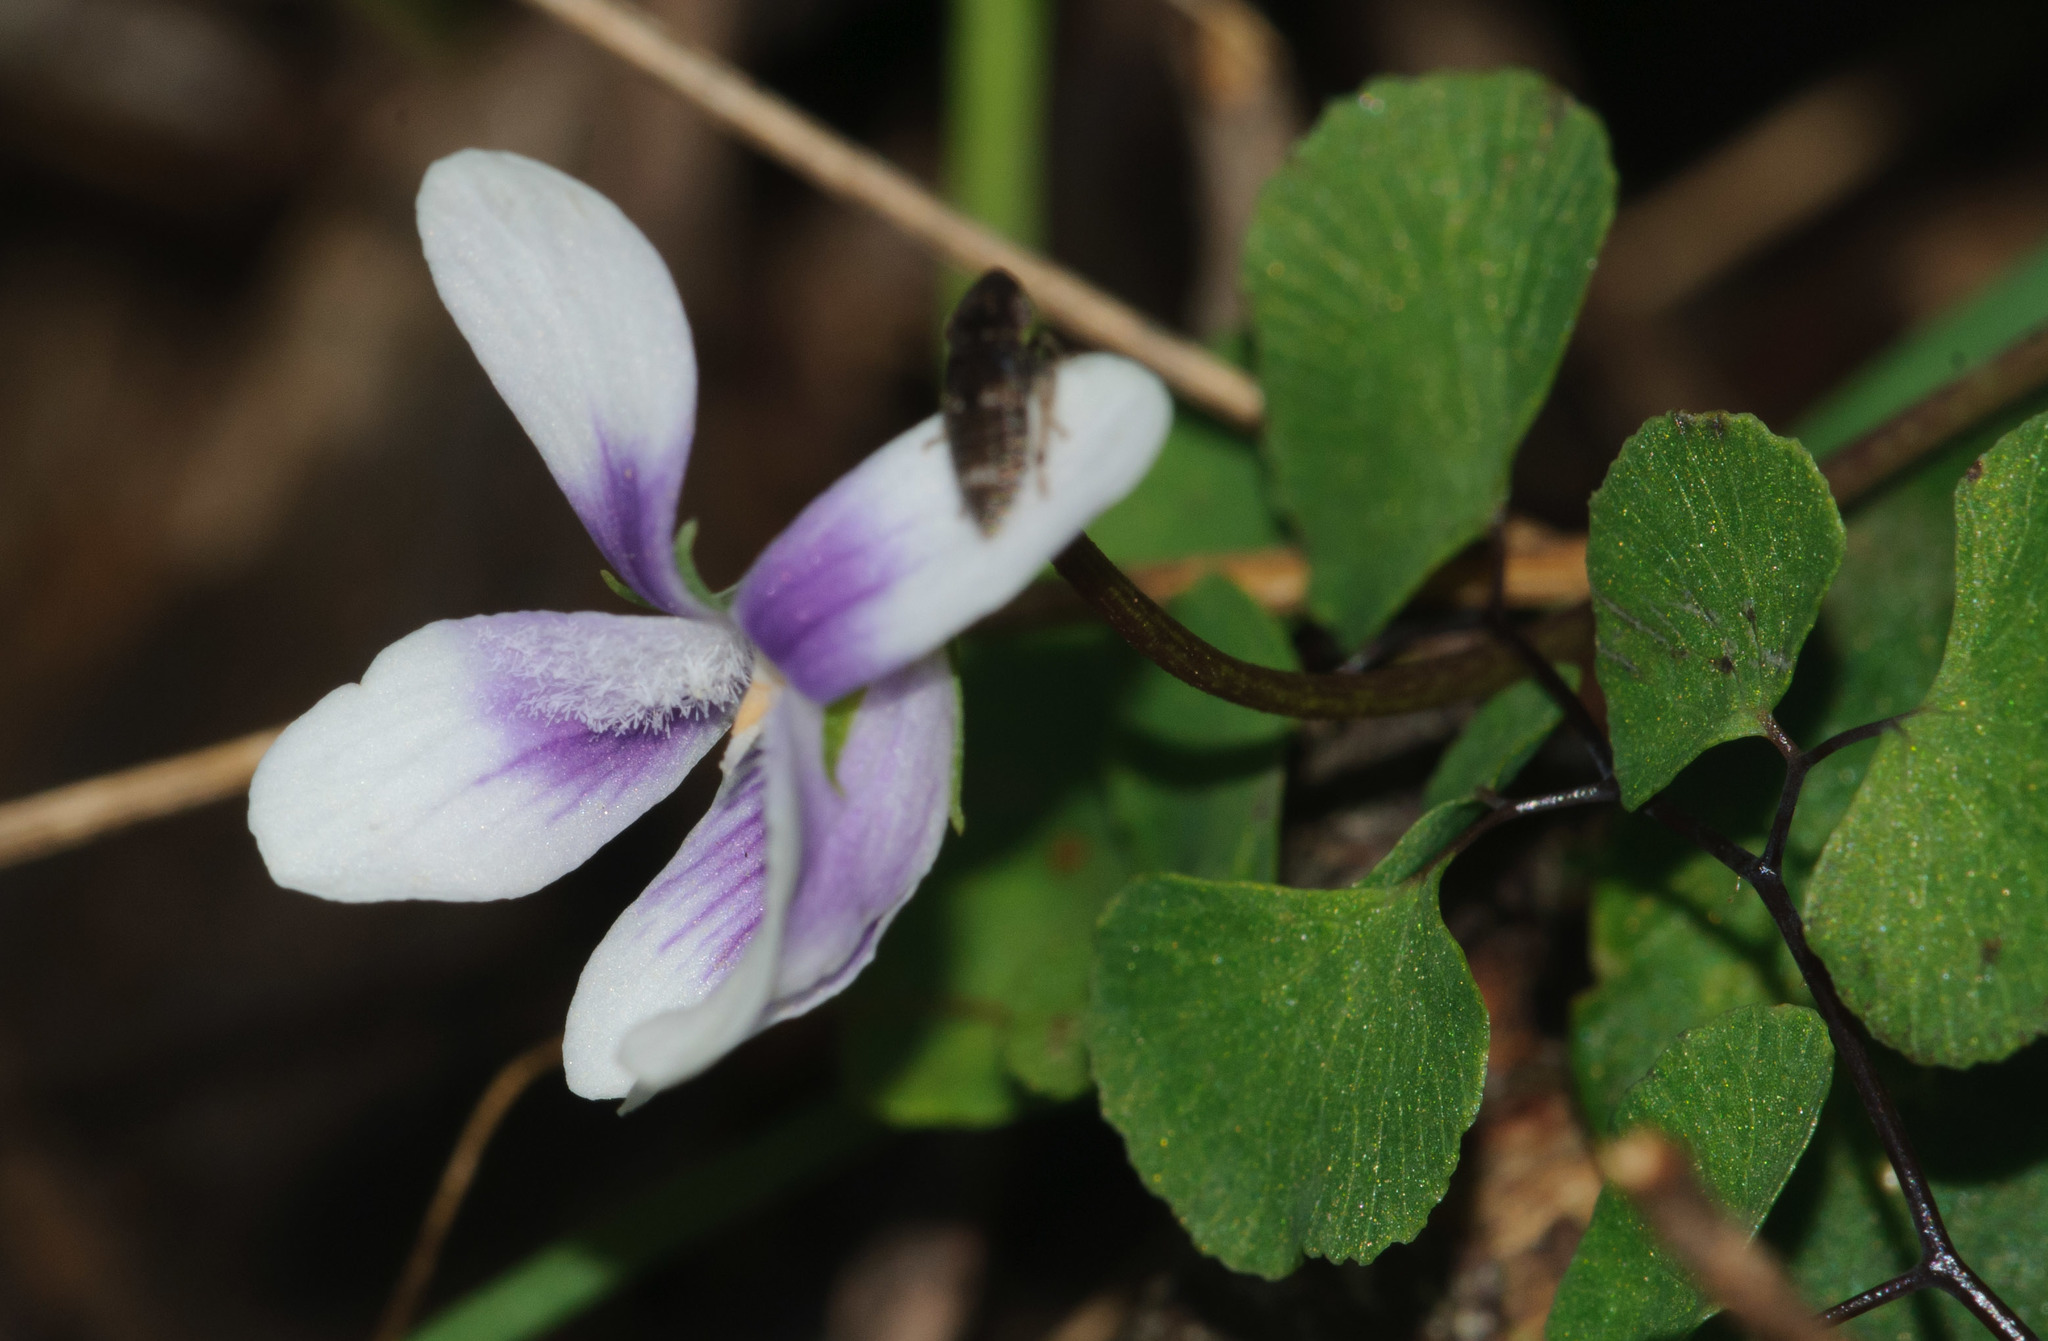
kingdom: Plantae
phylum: Tracheophyta
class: Magnoliopsida
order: Malpighiales
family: Violaceae
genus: Viola
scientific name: Viola hederacea
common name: Australian violet
